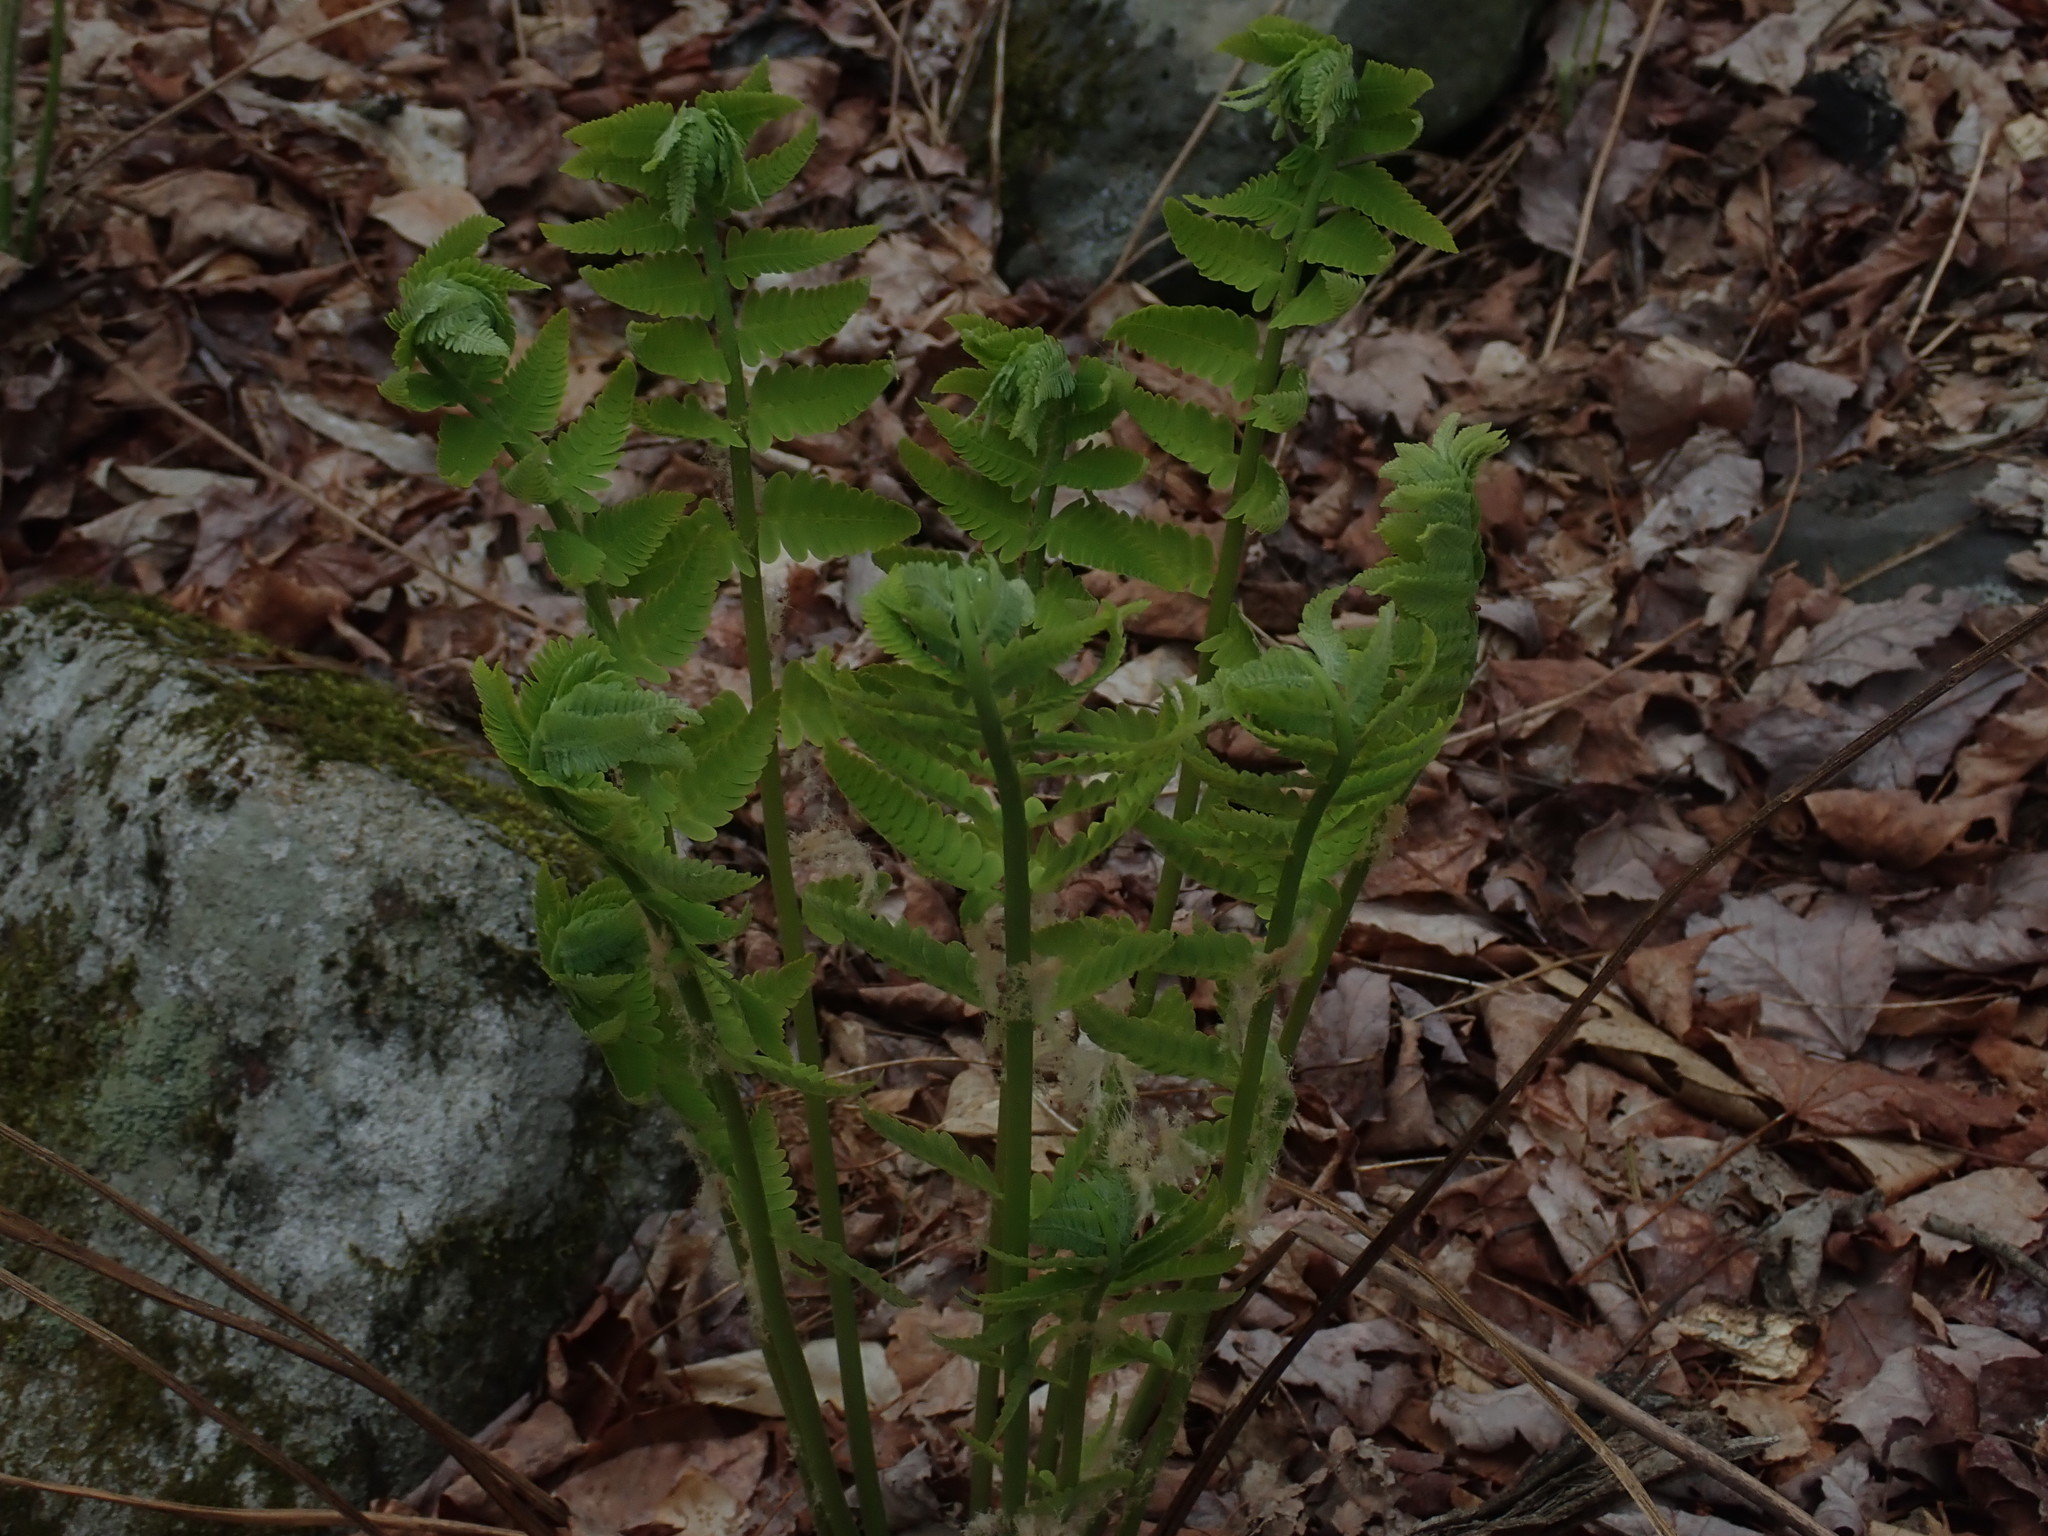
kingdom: Plantae
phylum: Tracheophyta
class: Polypodiopsida
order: Osmundales
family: Osmundaceae
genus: Claytosmunda
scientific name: Claytosmunda claytoniana
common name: Clayton's fern
